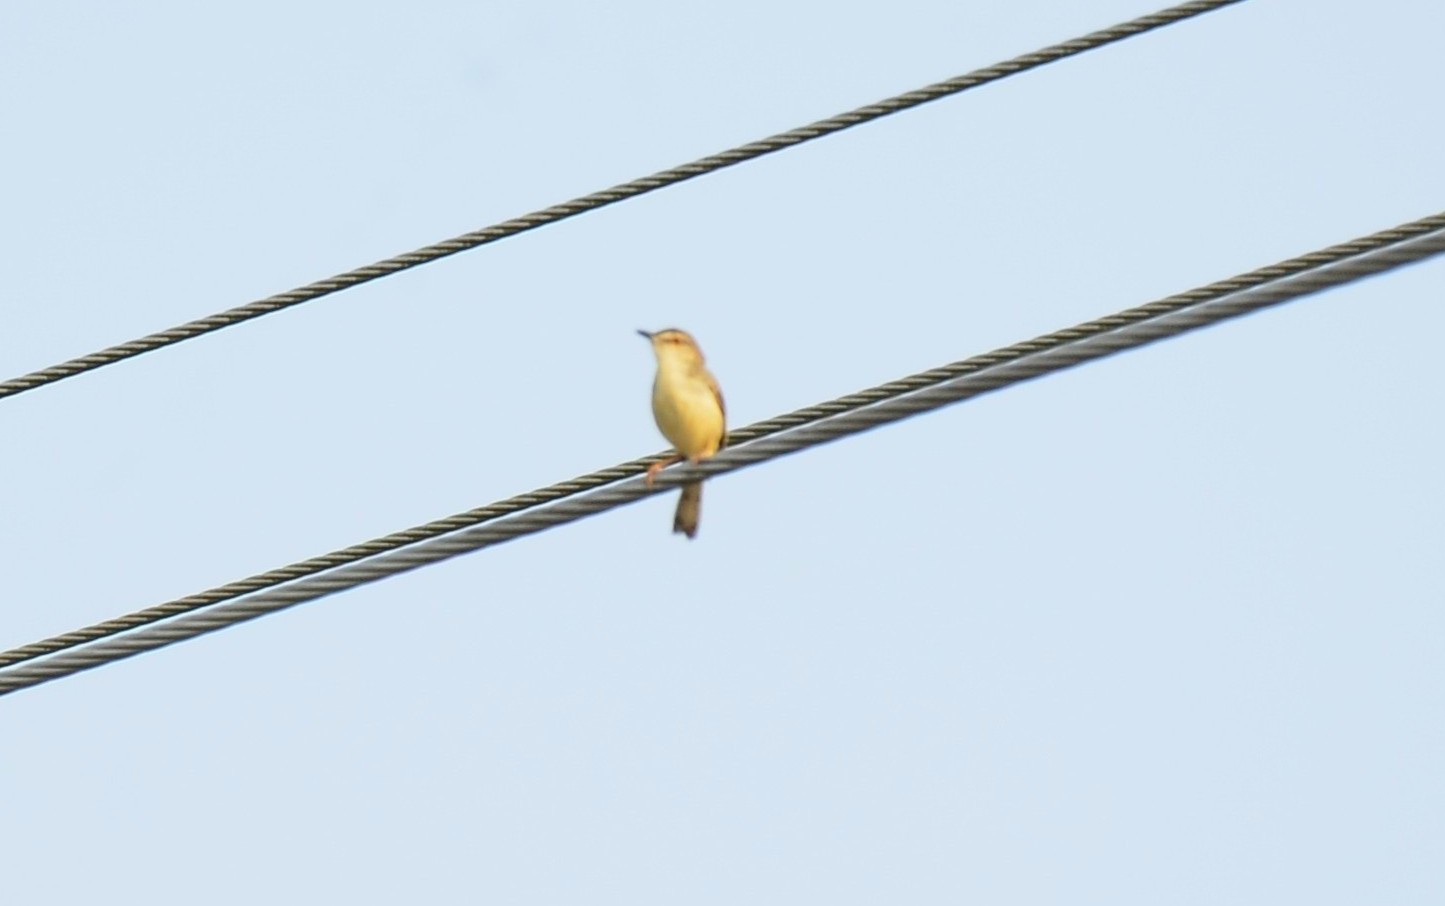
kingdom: Animalia
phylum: Chordata
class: Aves
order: Passeriformes
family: Cisticolidae
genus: Prinia
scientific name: Prinia inornata
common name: Plain prinia
